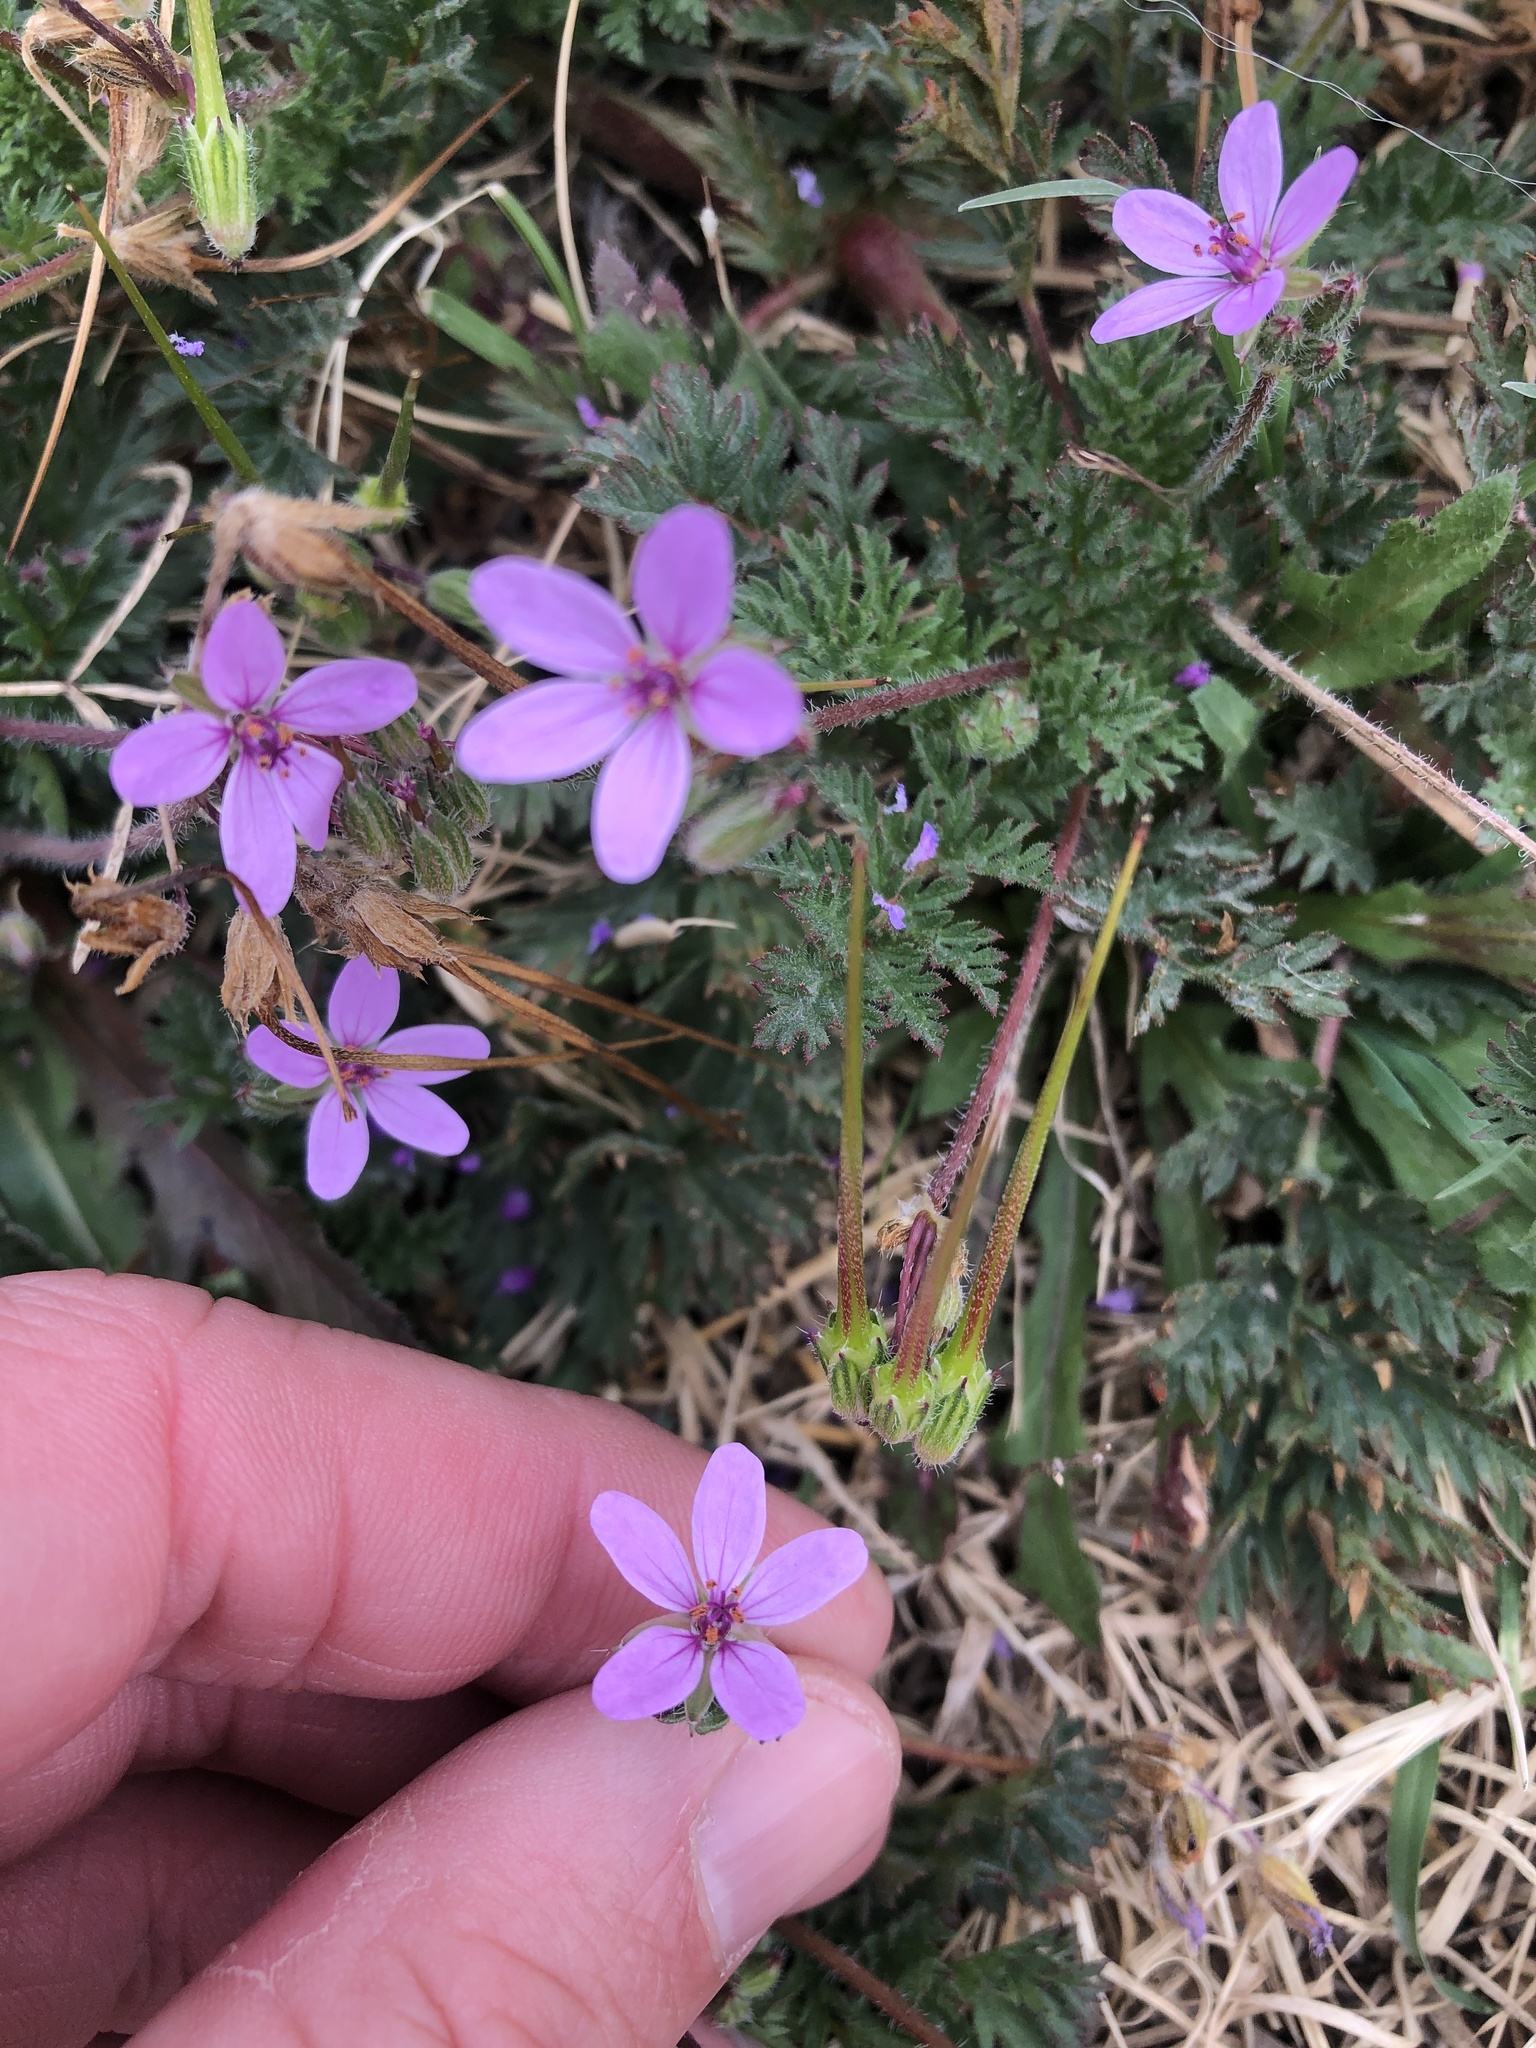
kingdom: Plantae
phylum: Tracheophyta
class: Magnoliopsida
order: Geraniales
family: Geraniaceae
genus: Erodium
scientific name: Erodium cicutarium
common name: Common stork's-bill
